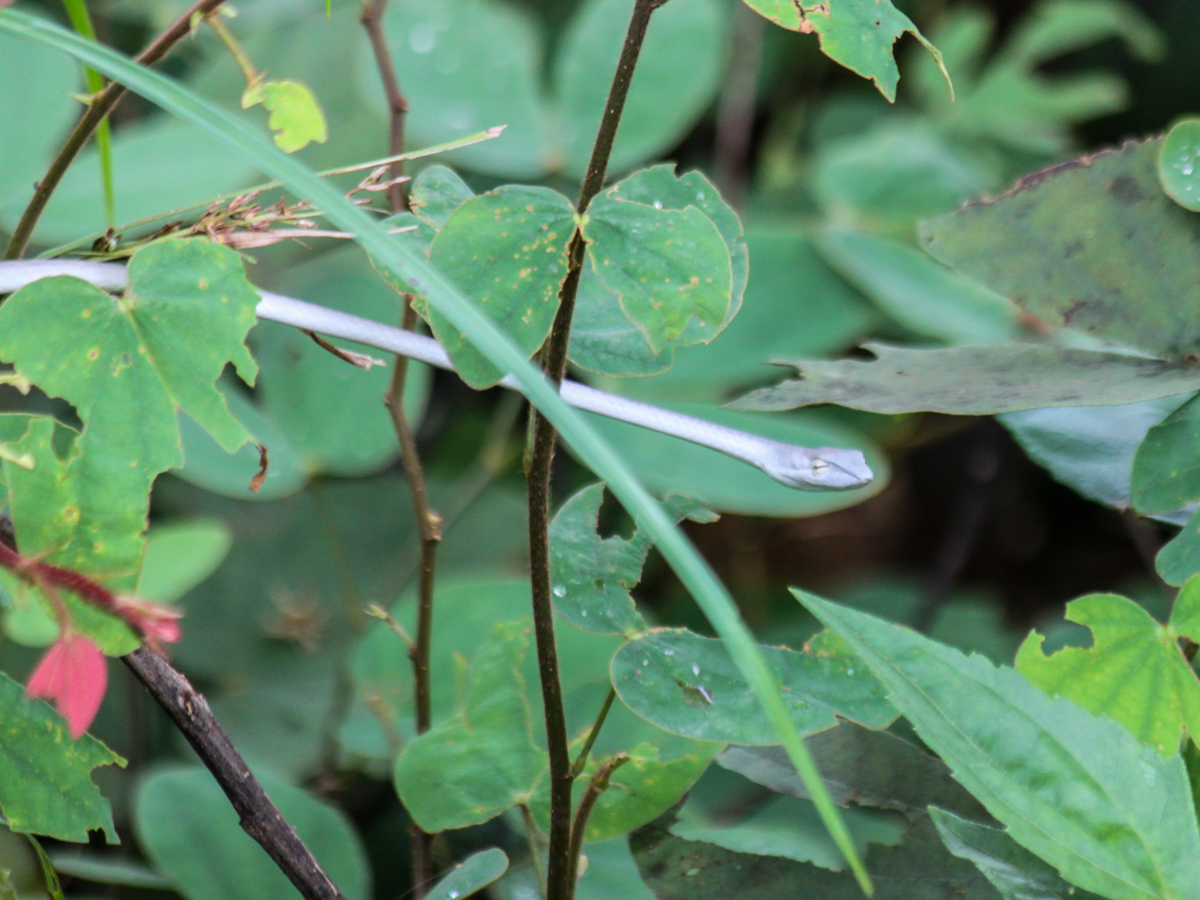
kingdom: Animalia
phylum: Chordata
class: Squamata
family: Colubridae
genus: Ahaetulla
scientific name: Ahaetulla prasina
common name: Oriental whip snake
